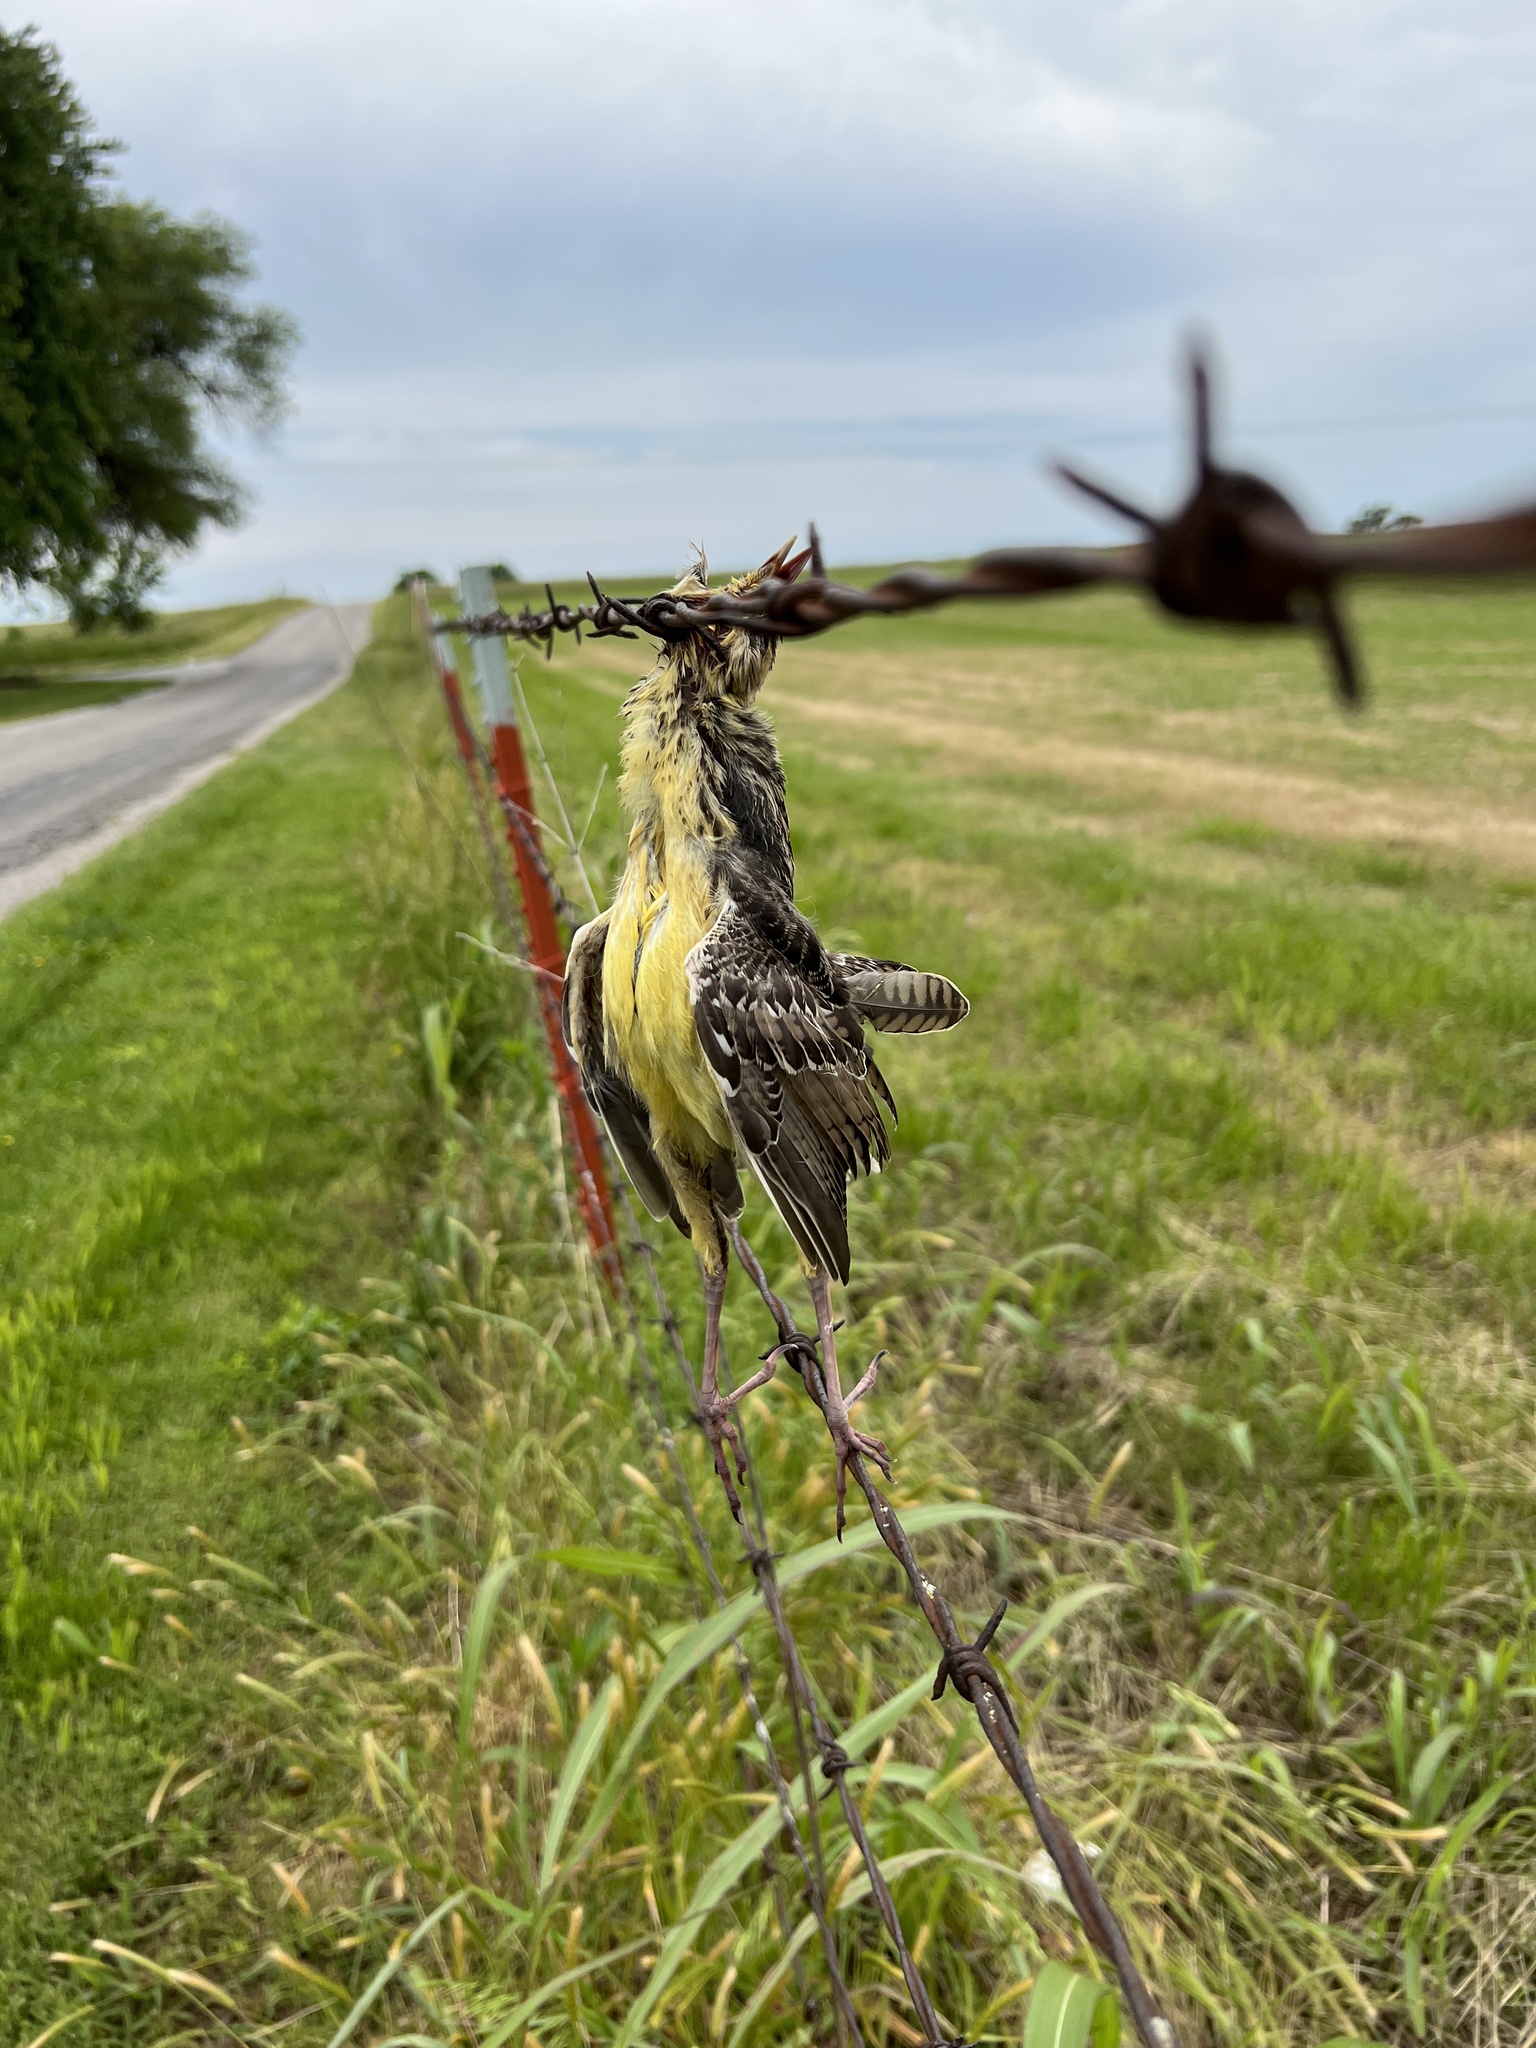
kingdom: Animalia
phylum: Chordata
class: Aves
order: Passeriformes
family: Icteridae
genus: Sturnella
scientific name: Sturnella magna
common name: Eastern meadowlark
